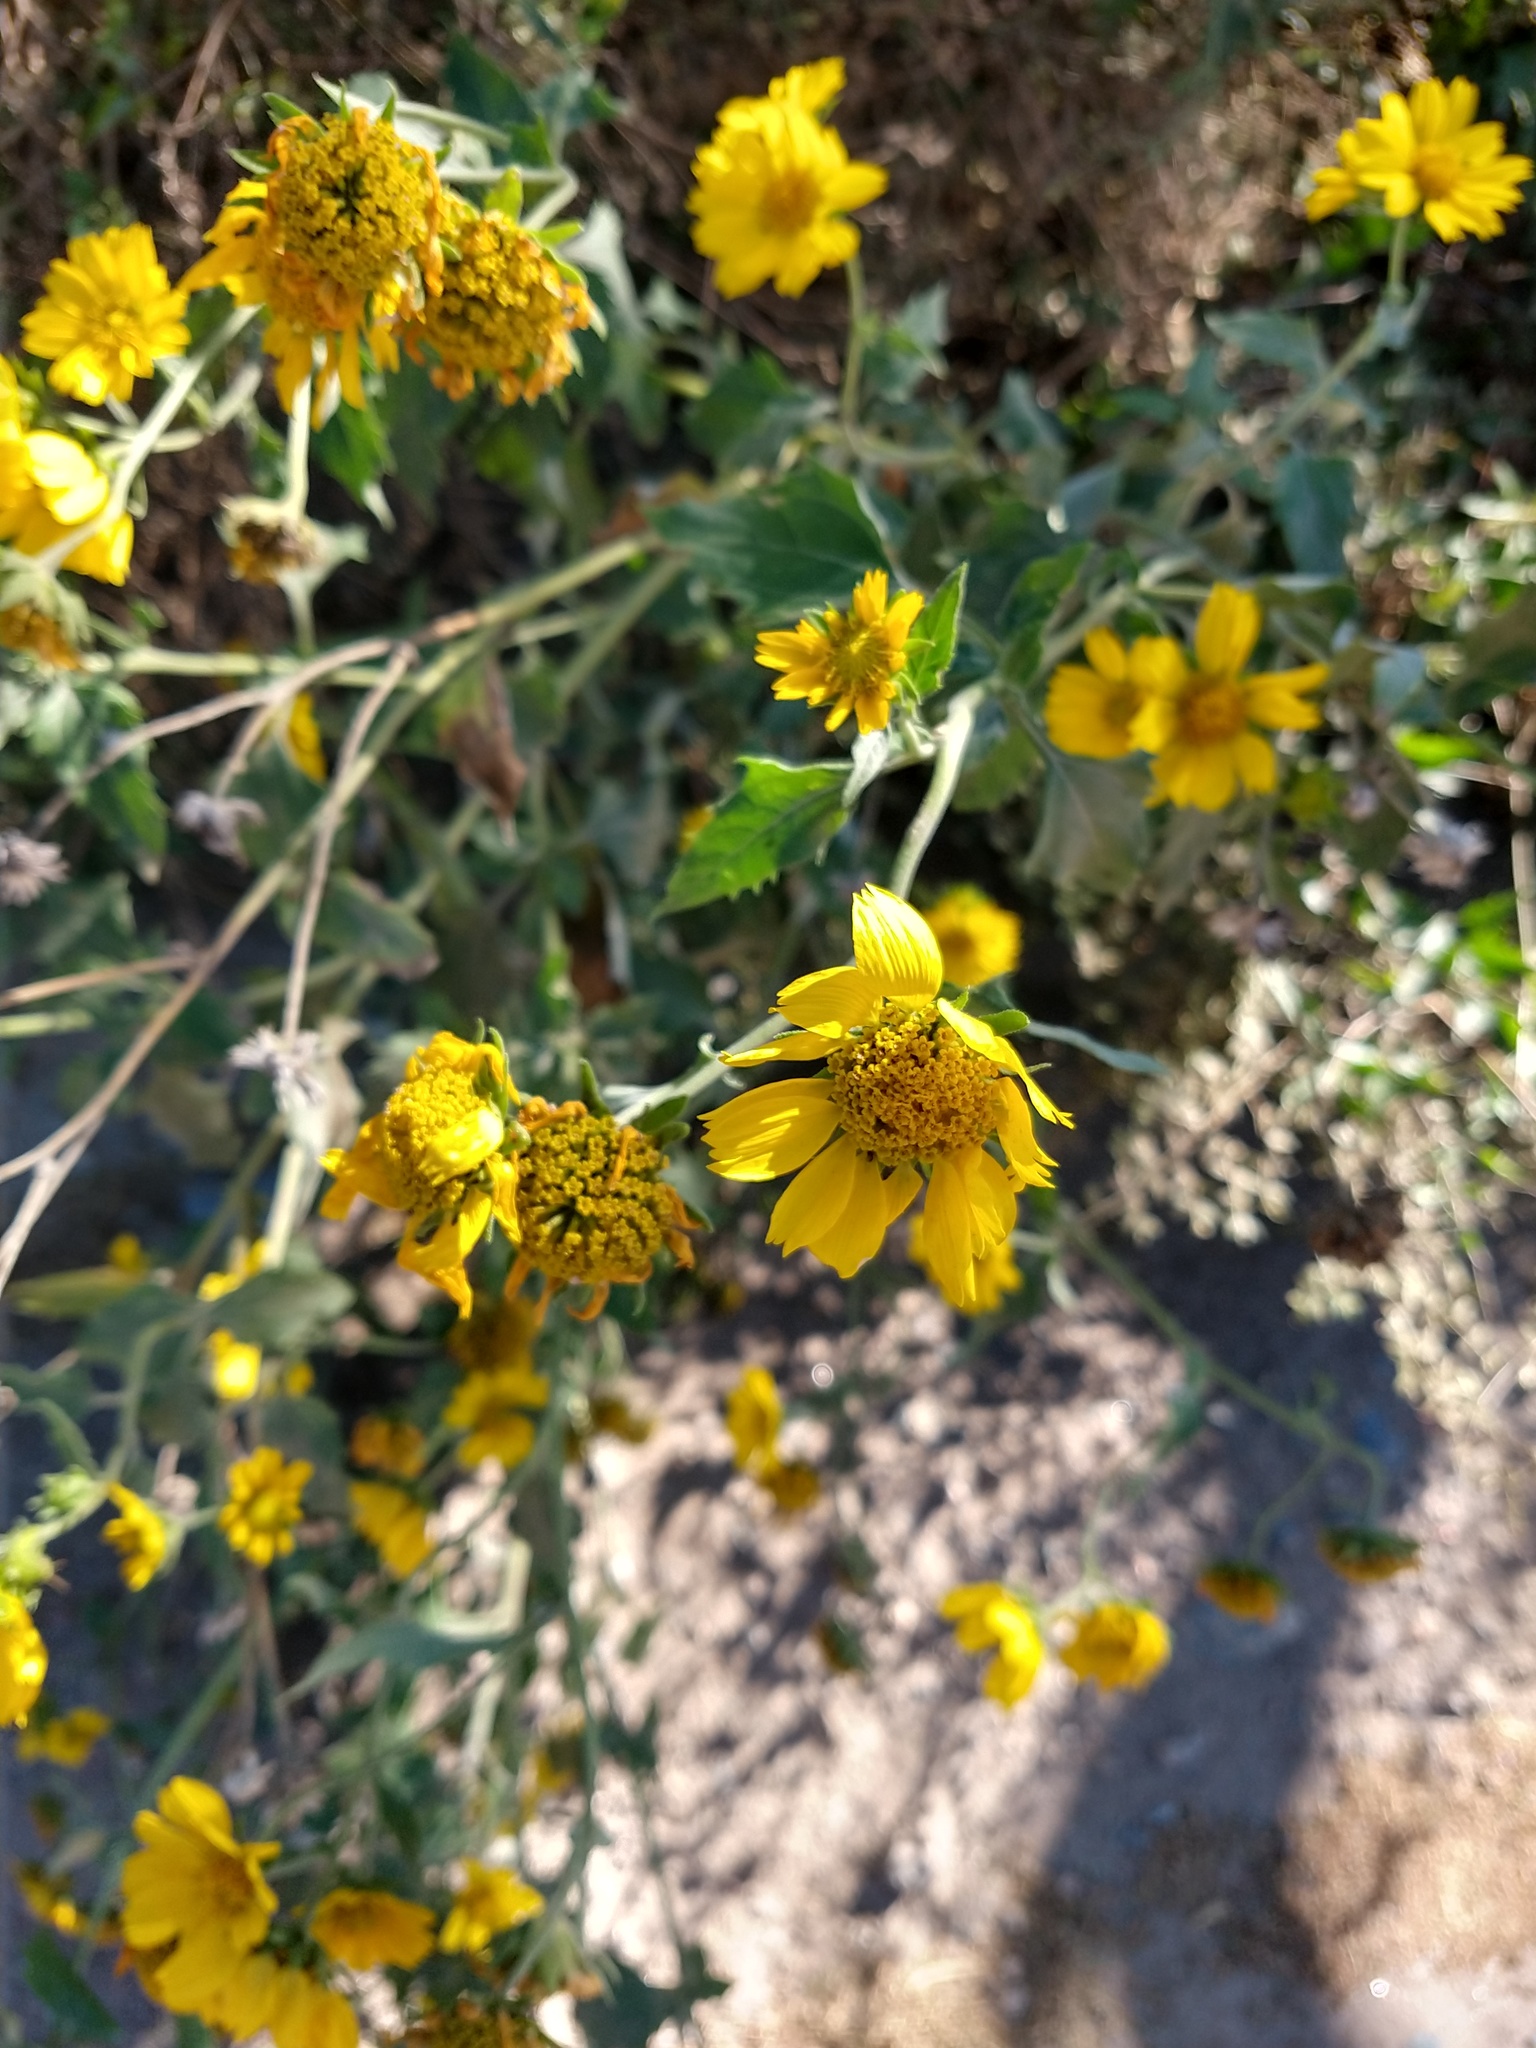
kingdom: Plantae
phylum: Tracheophyta
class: Magnoliopsida
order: Asterales
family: Asteraceae
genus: Verbesina
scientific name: Verbesina encelioides
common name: Golden crownbeard
